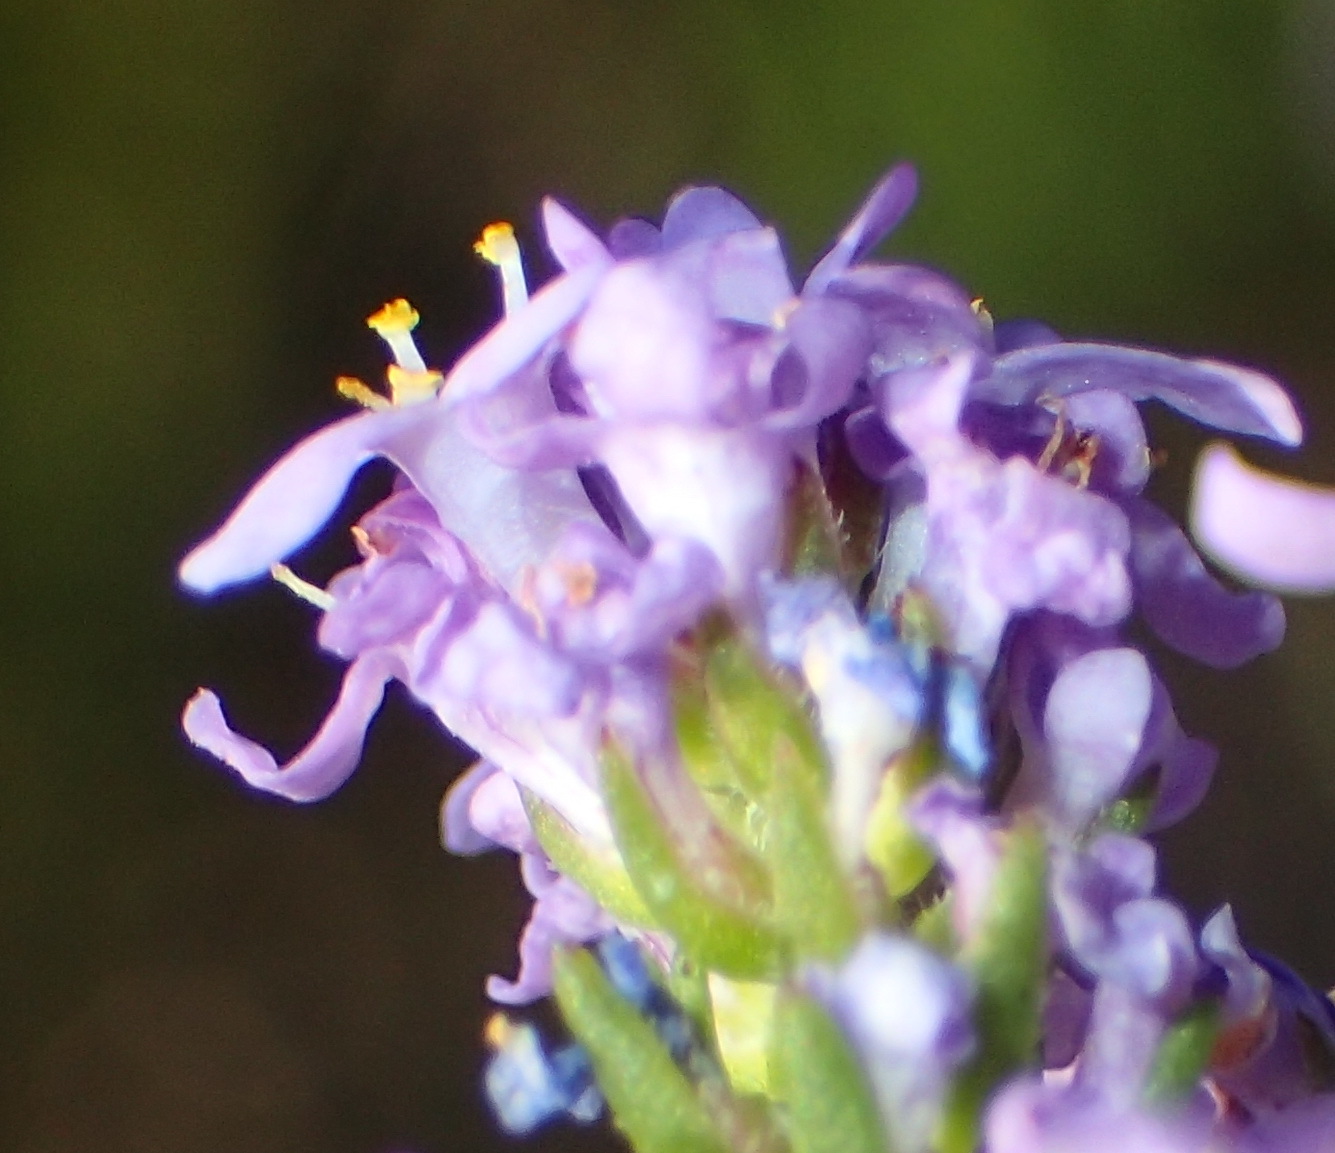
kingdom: Plantae
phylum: Tracheophyta
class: Magnoliopsida
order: Lamiales
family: Scrophulariaceae
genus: Selago
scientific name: Selago villicaulis
